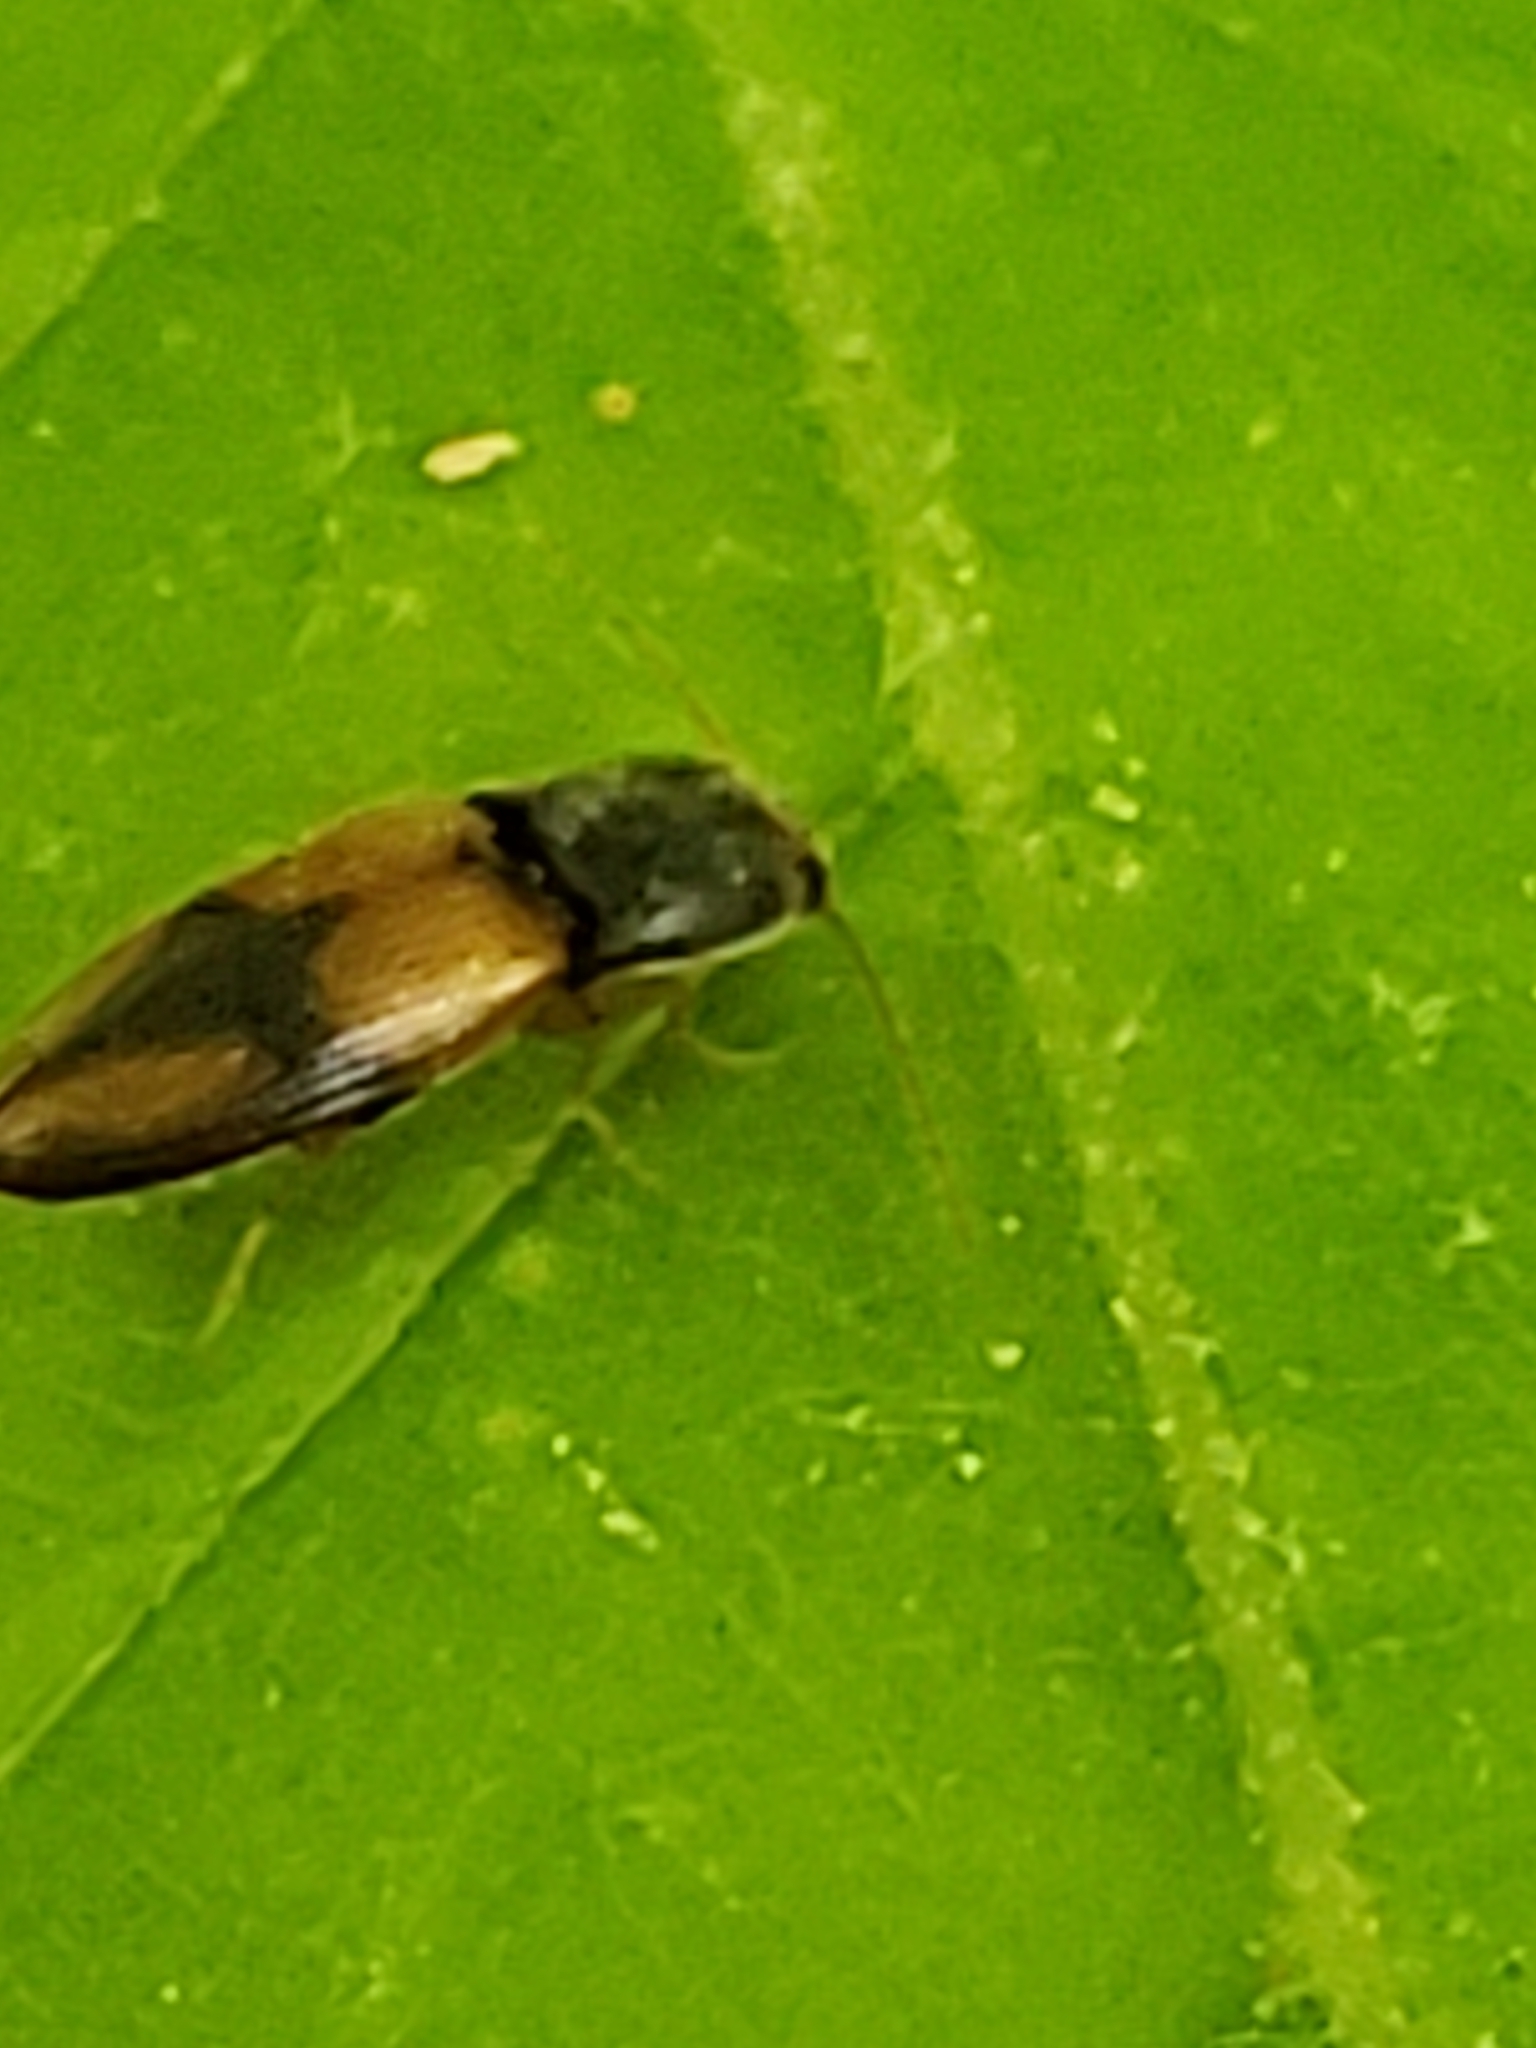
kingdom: Animalia
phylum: Arthropoda
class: Insecta
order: Coleoptera
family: Elateridae
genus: Horistonotus
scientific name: Horistonotus curiatus
